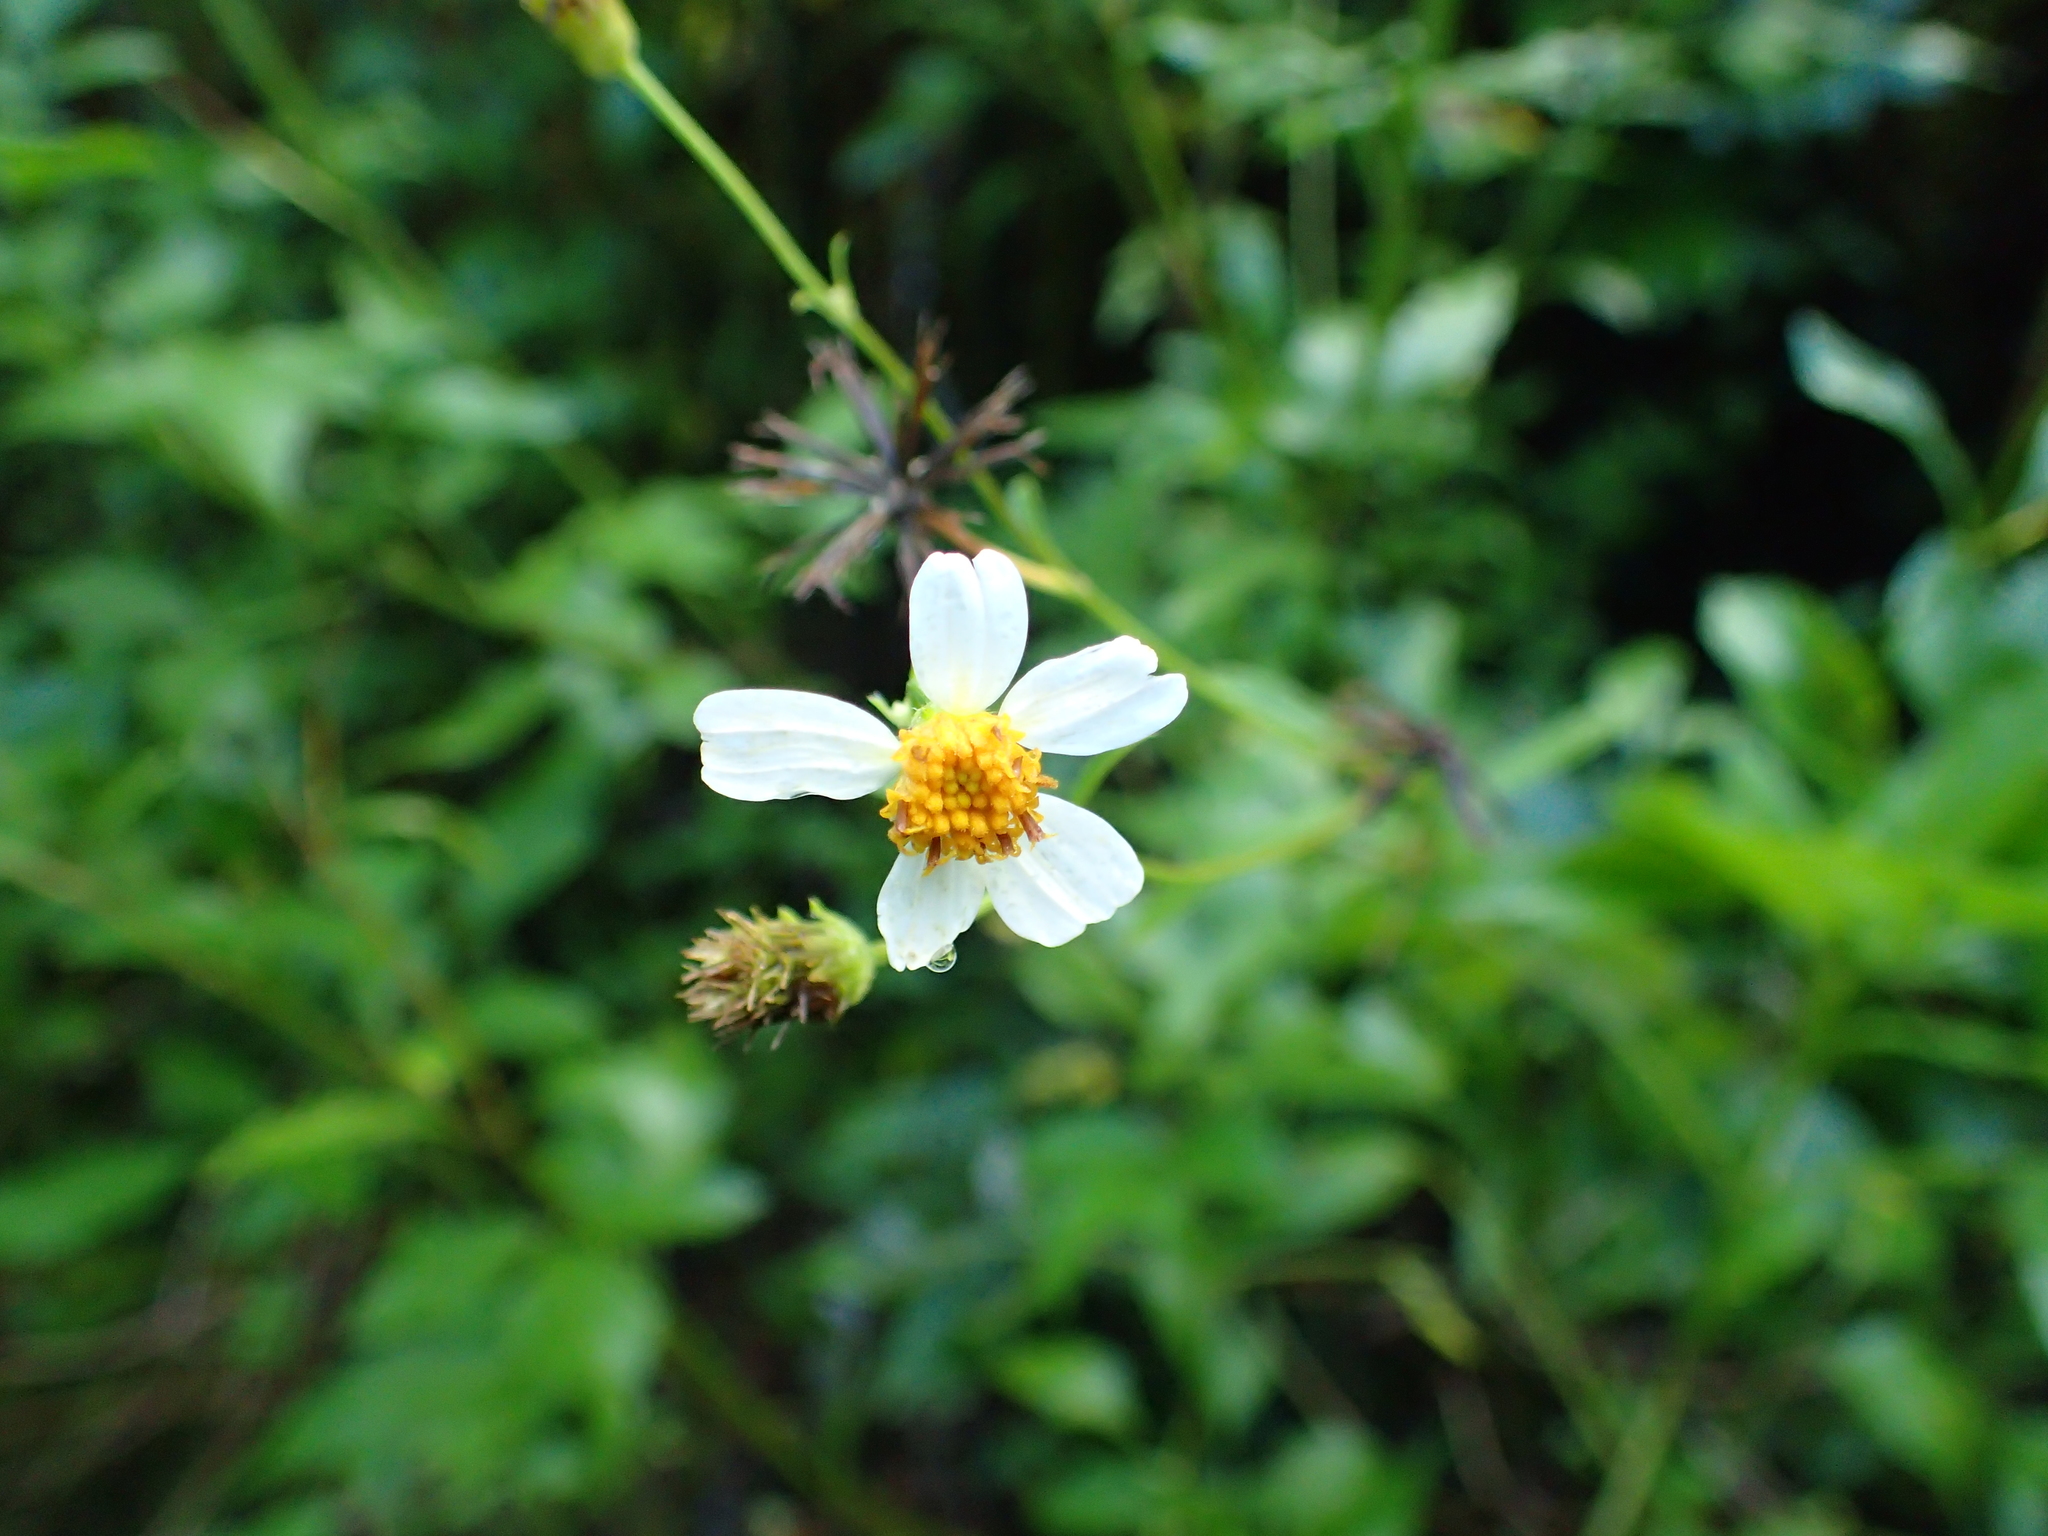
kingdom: Plantae
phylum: Tracheophyta
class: Magnoliopsida
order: Asterales
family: Asteraceae
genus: Bidens
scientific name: Bidens alba
